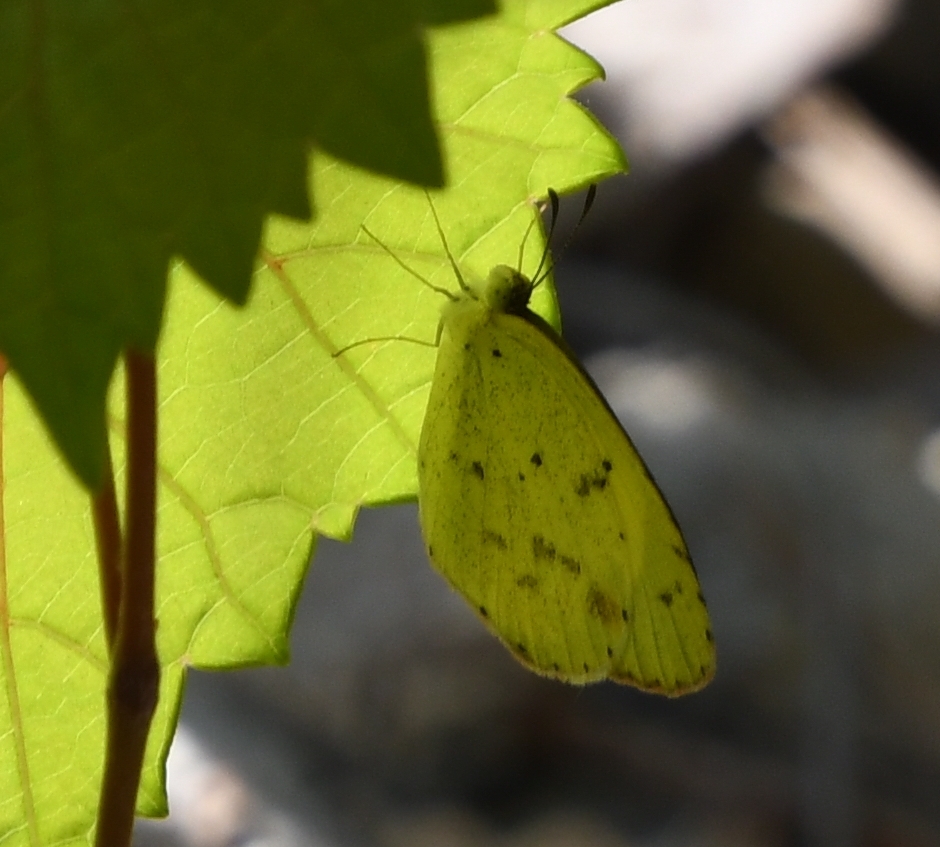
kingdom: Animalia
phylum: Arthropoda
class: Insecta
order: Lepidoptera
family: Pieridae
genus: Pyrisitia
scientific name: Pyrisitia lisa
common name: Little yellow
